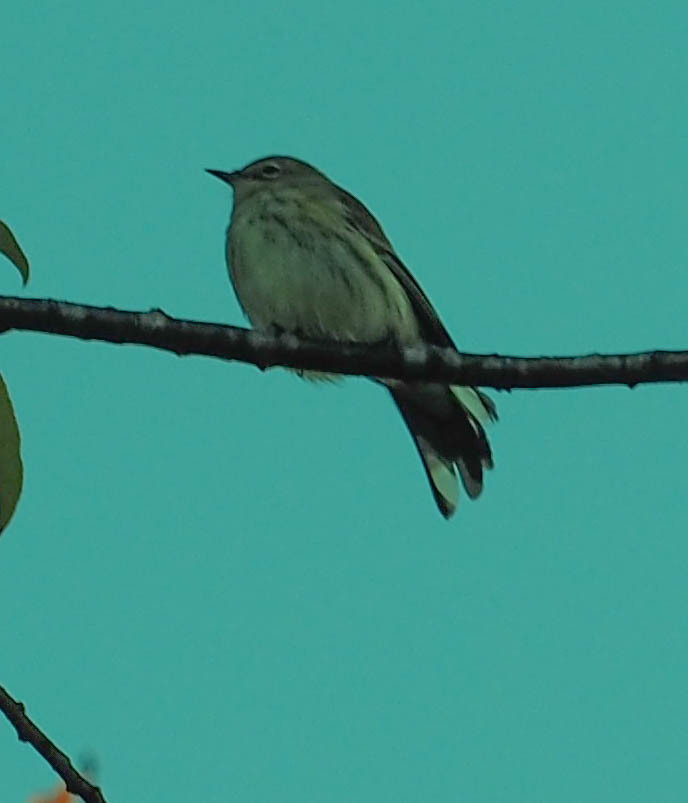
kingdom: Animalia
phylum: Chordata
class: Aves
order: Passeriformes
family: Parulidae
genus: Setophaga
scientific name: Setophaga coronata
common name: Myrtle warbler
